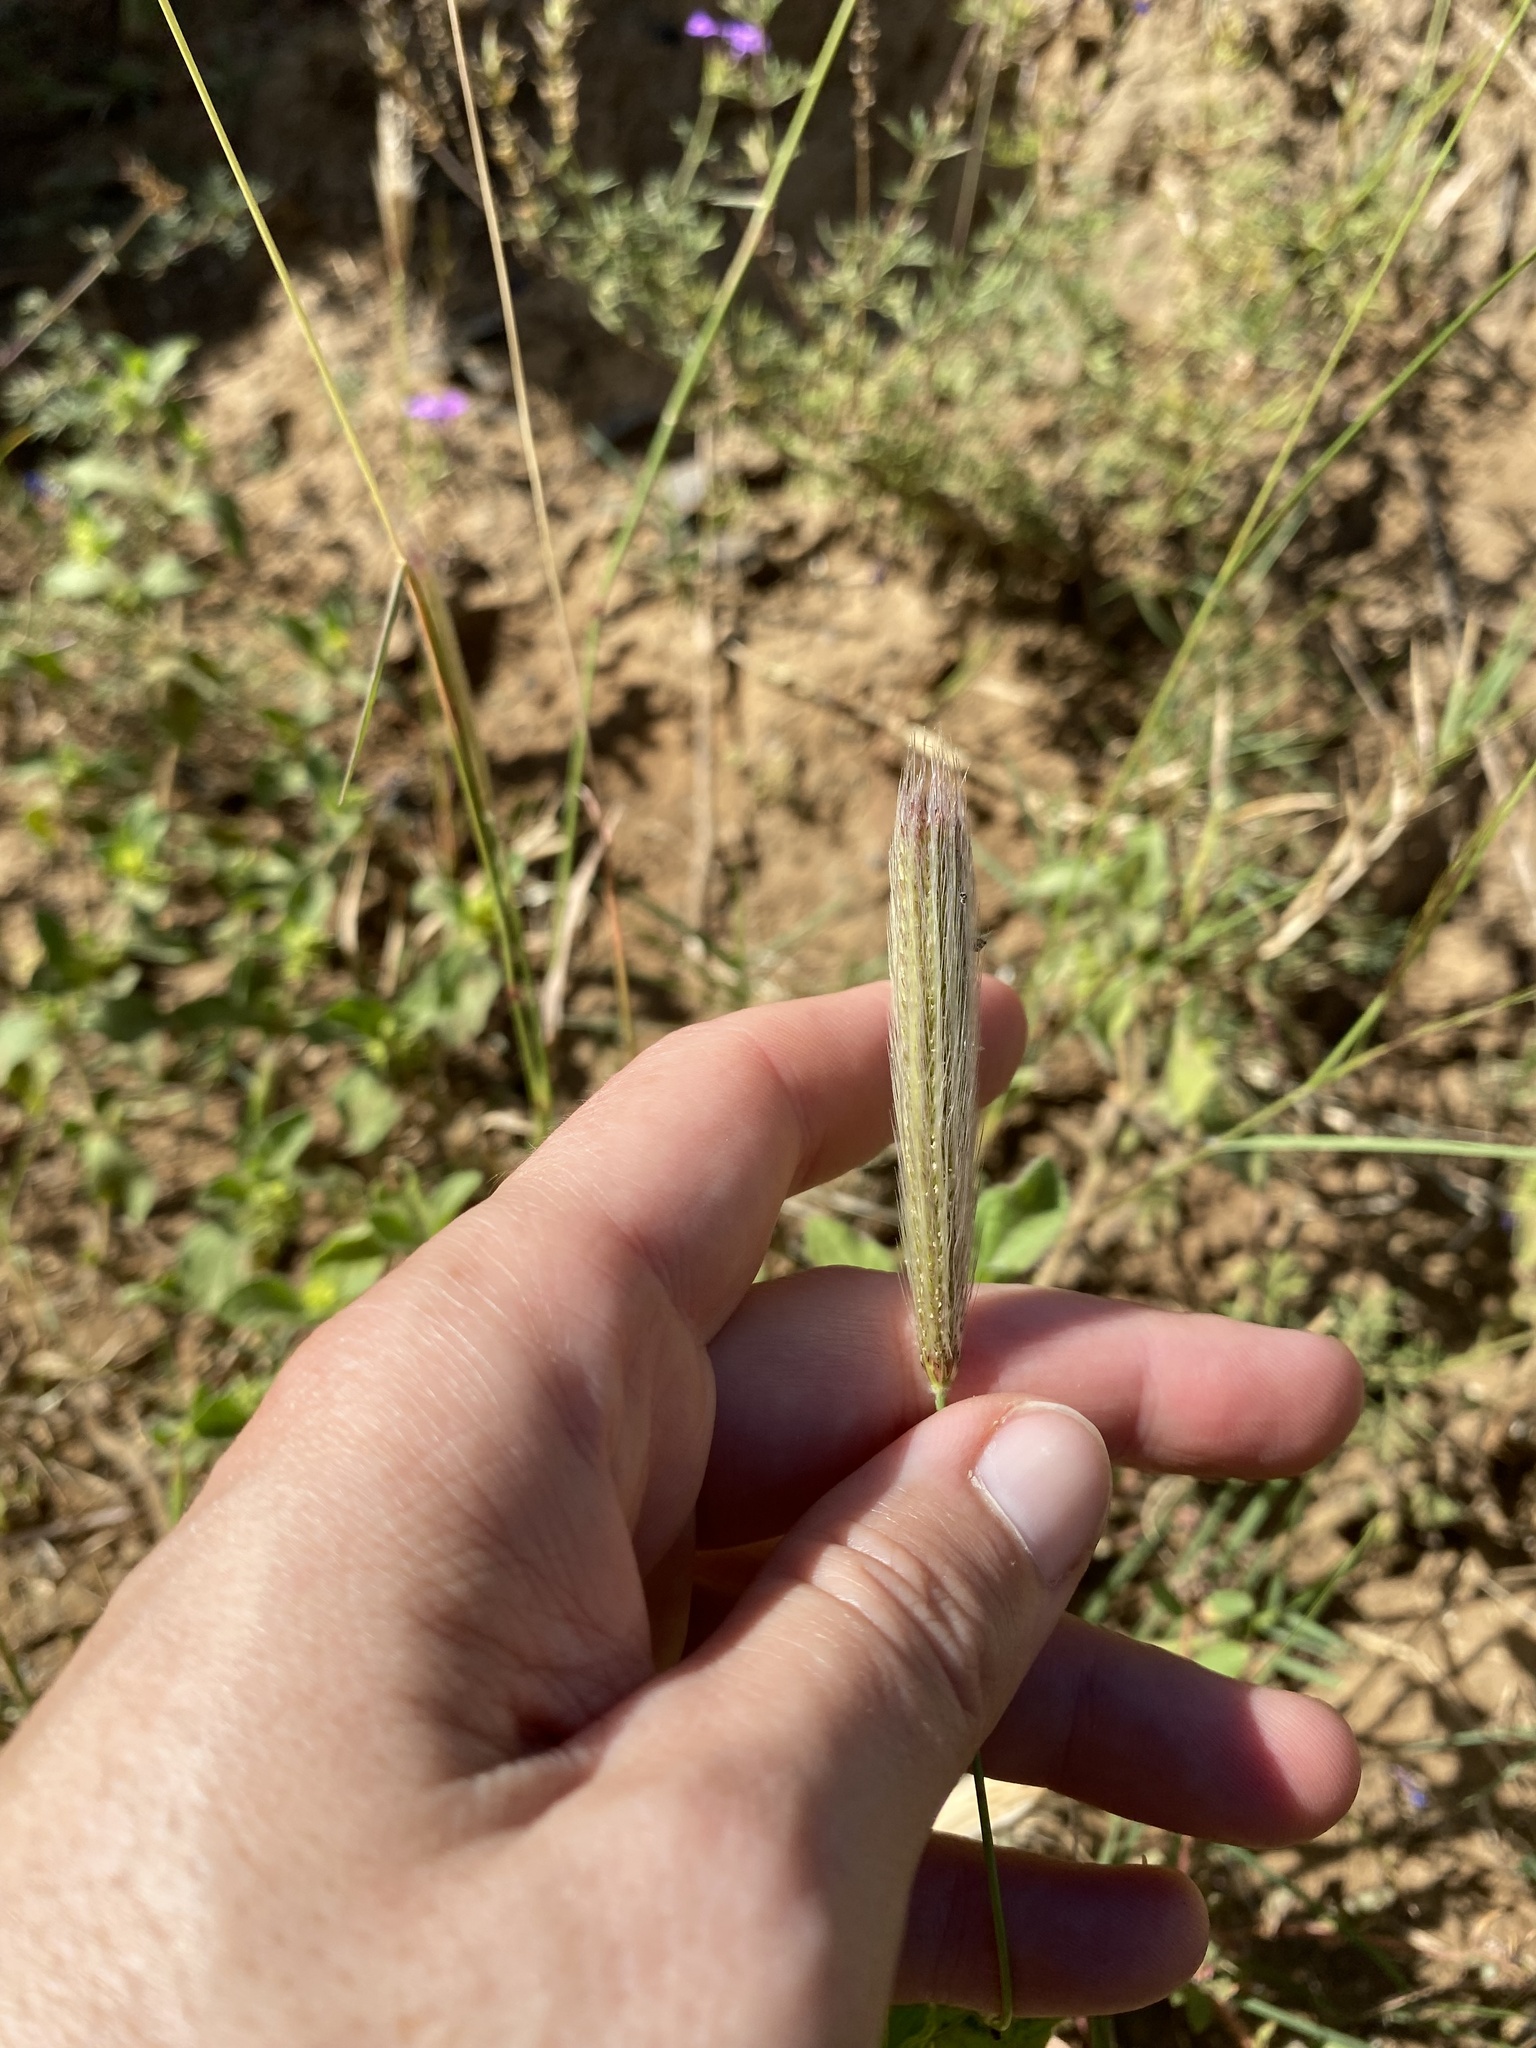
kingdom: Plantae
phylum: Tracheophyta
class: Liliopsida
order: Poales
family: Poaceae
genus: Chloris
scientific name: Chloris virgata
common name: Feathery rhodes-grass
